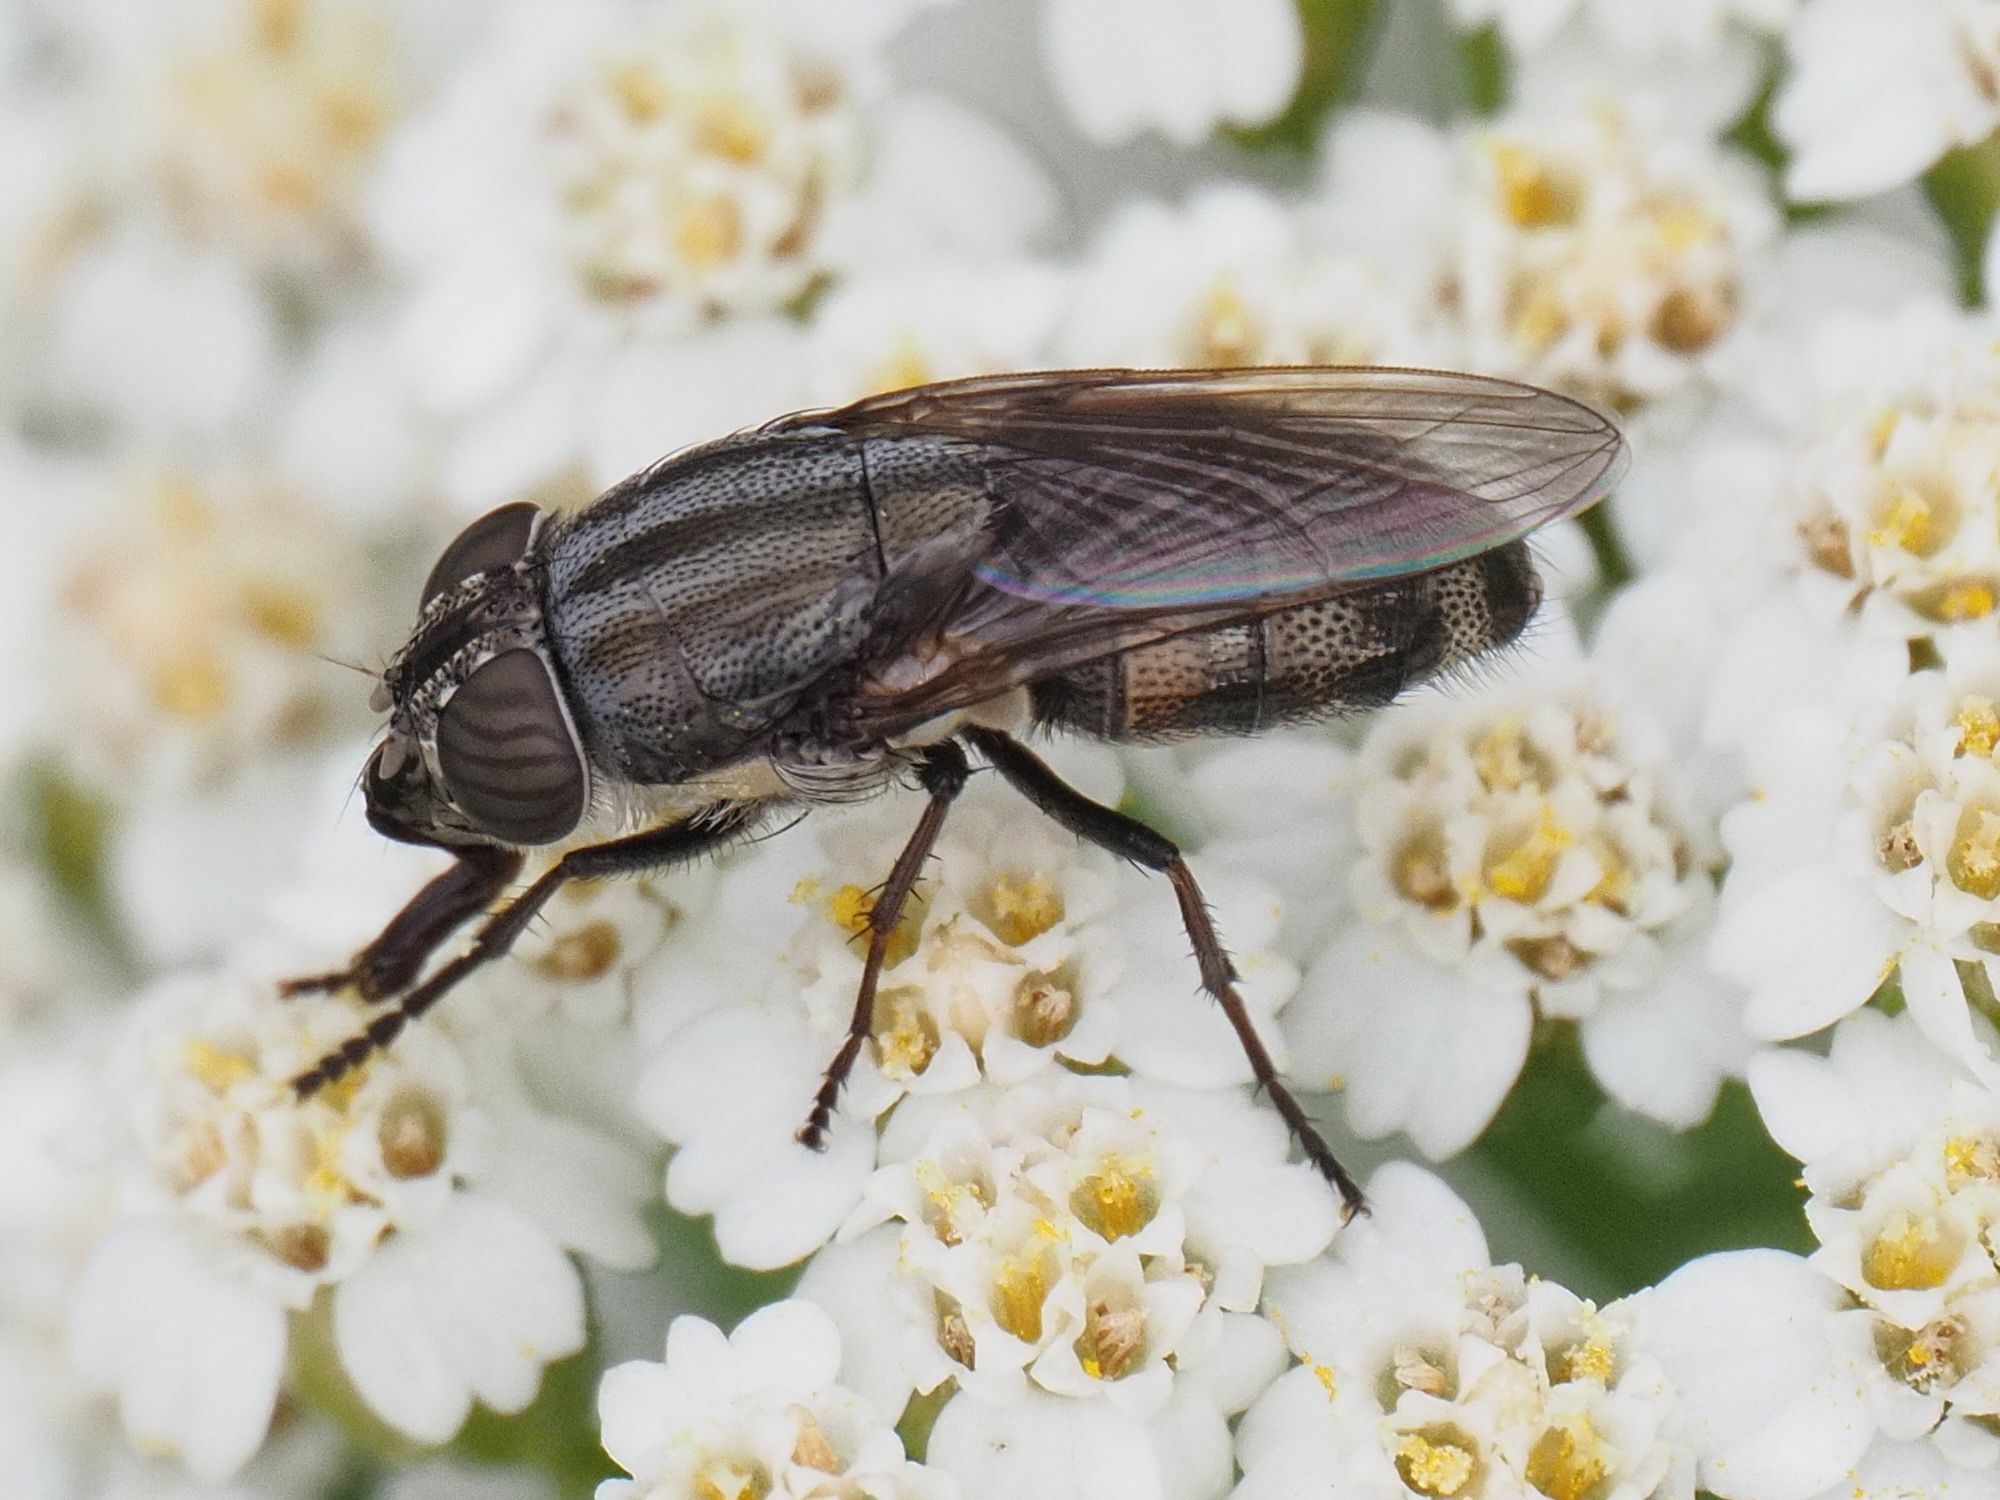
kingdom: Animalia
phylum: Arthropoda
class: Insecta
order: Diptera
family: Calliphoridae
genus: Stomorhina
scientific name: Stomorhina lunata
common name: Locust blowfly
